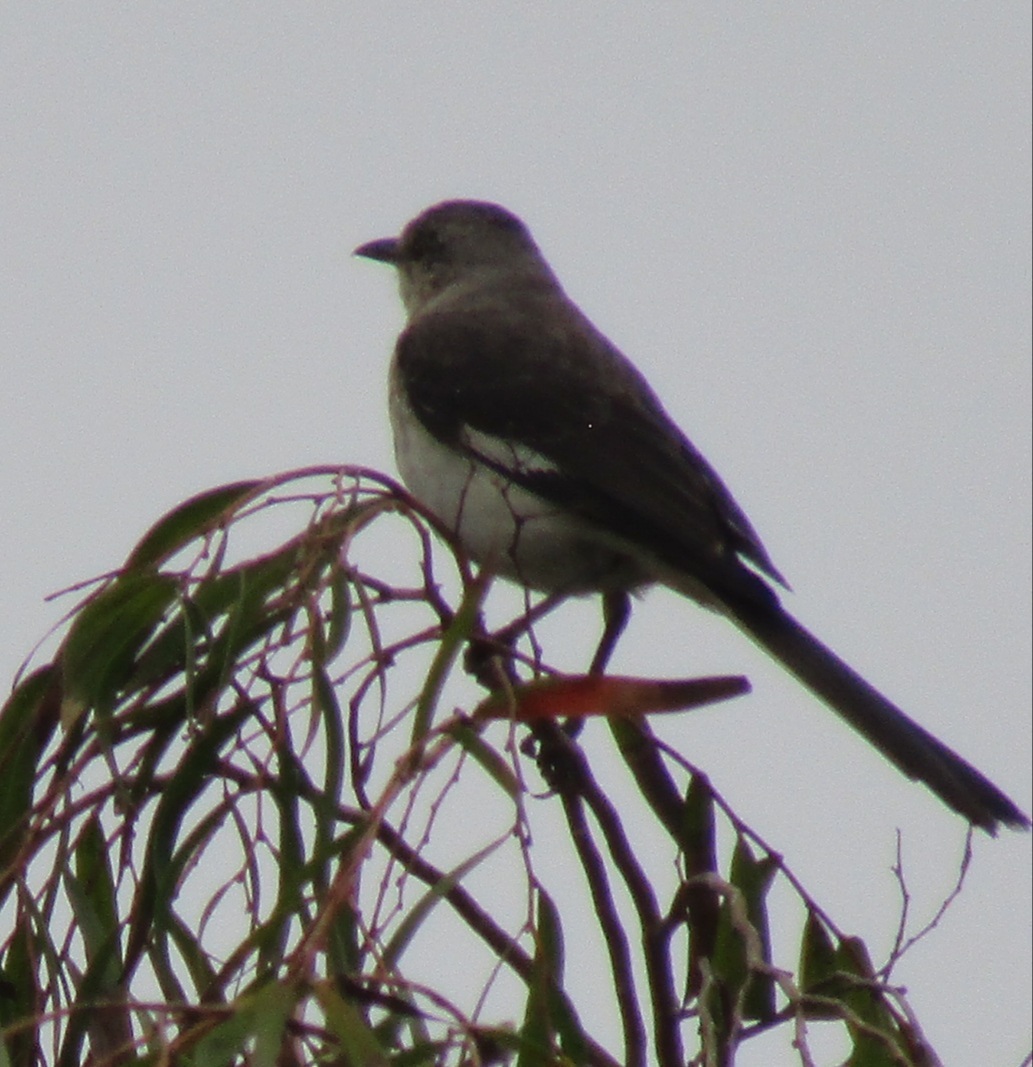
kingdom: Animalia
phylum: Chordata
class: Aves
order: Passeriformes
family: Mimidae
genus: Mimus
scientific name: Mimus polyglottos
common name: Northern mockingbird
